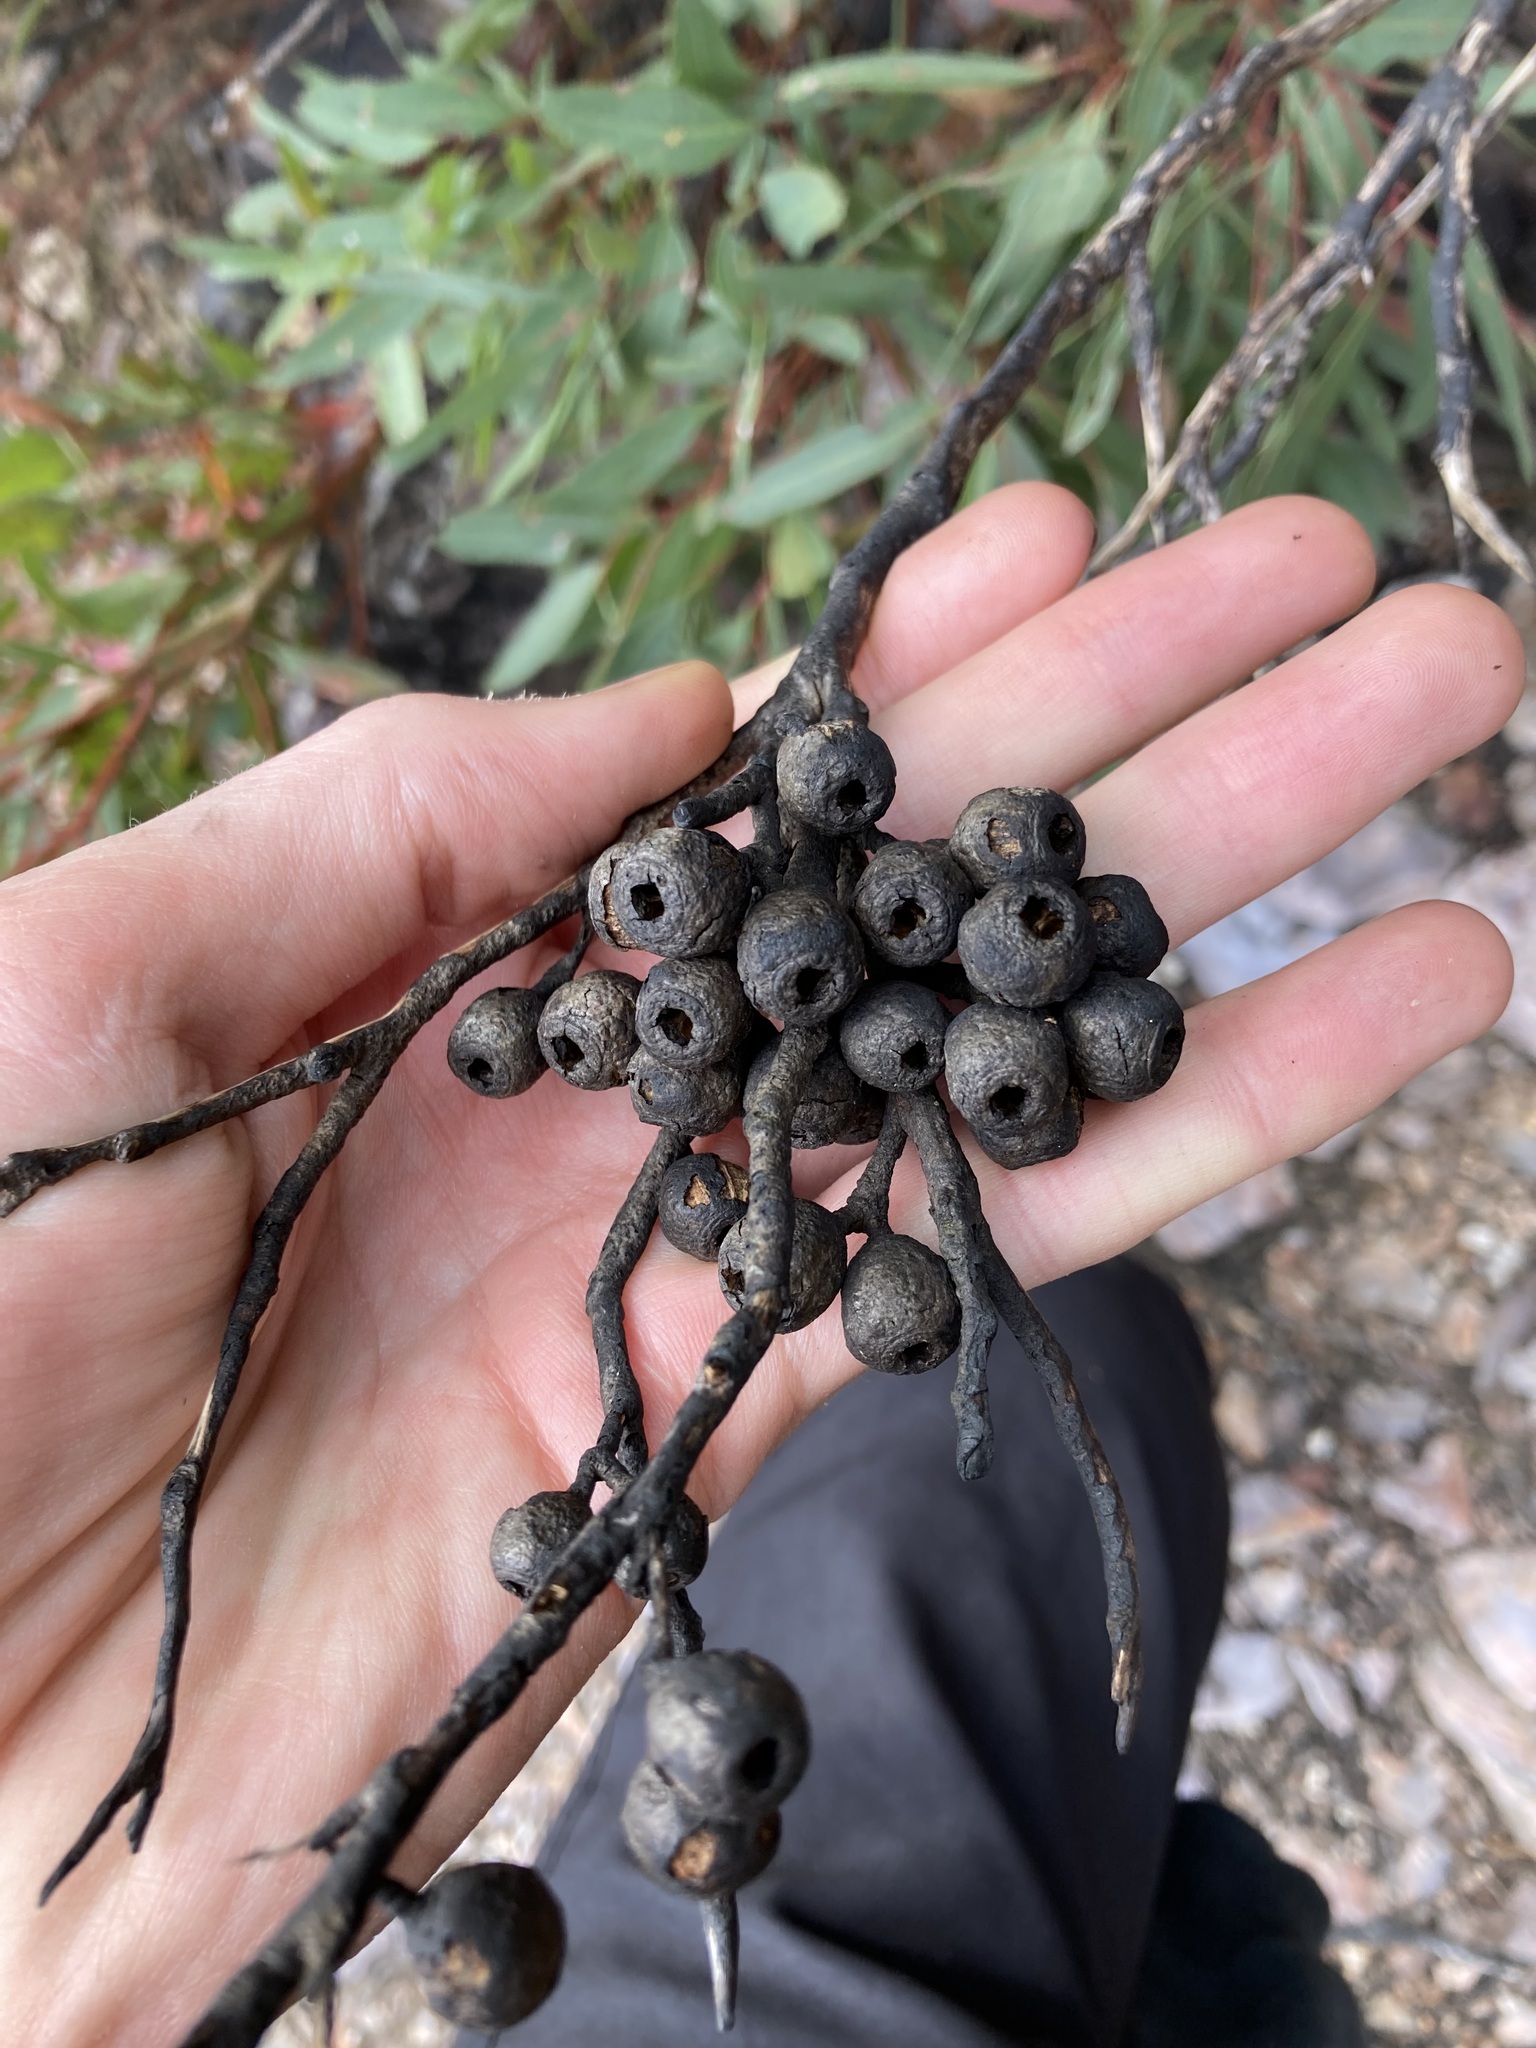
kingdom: Plantae
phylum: Tracheophyta
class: Magnoliopsida
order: Myrtales
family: Myrtaceae
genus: Eucalyptus
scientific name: Eucalyptus ligulata
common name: Lucky bay mallee
